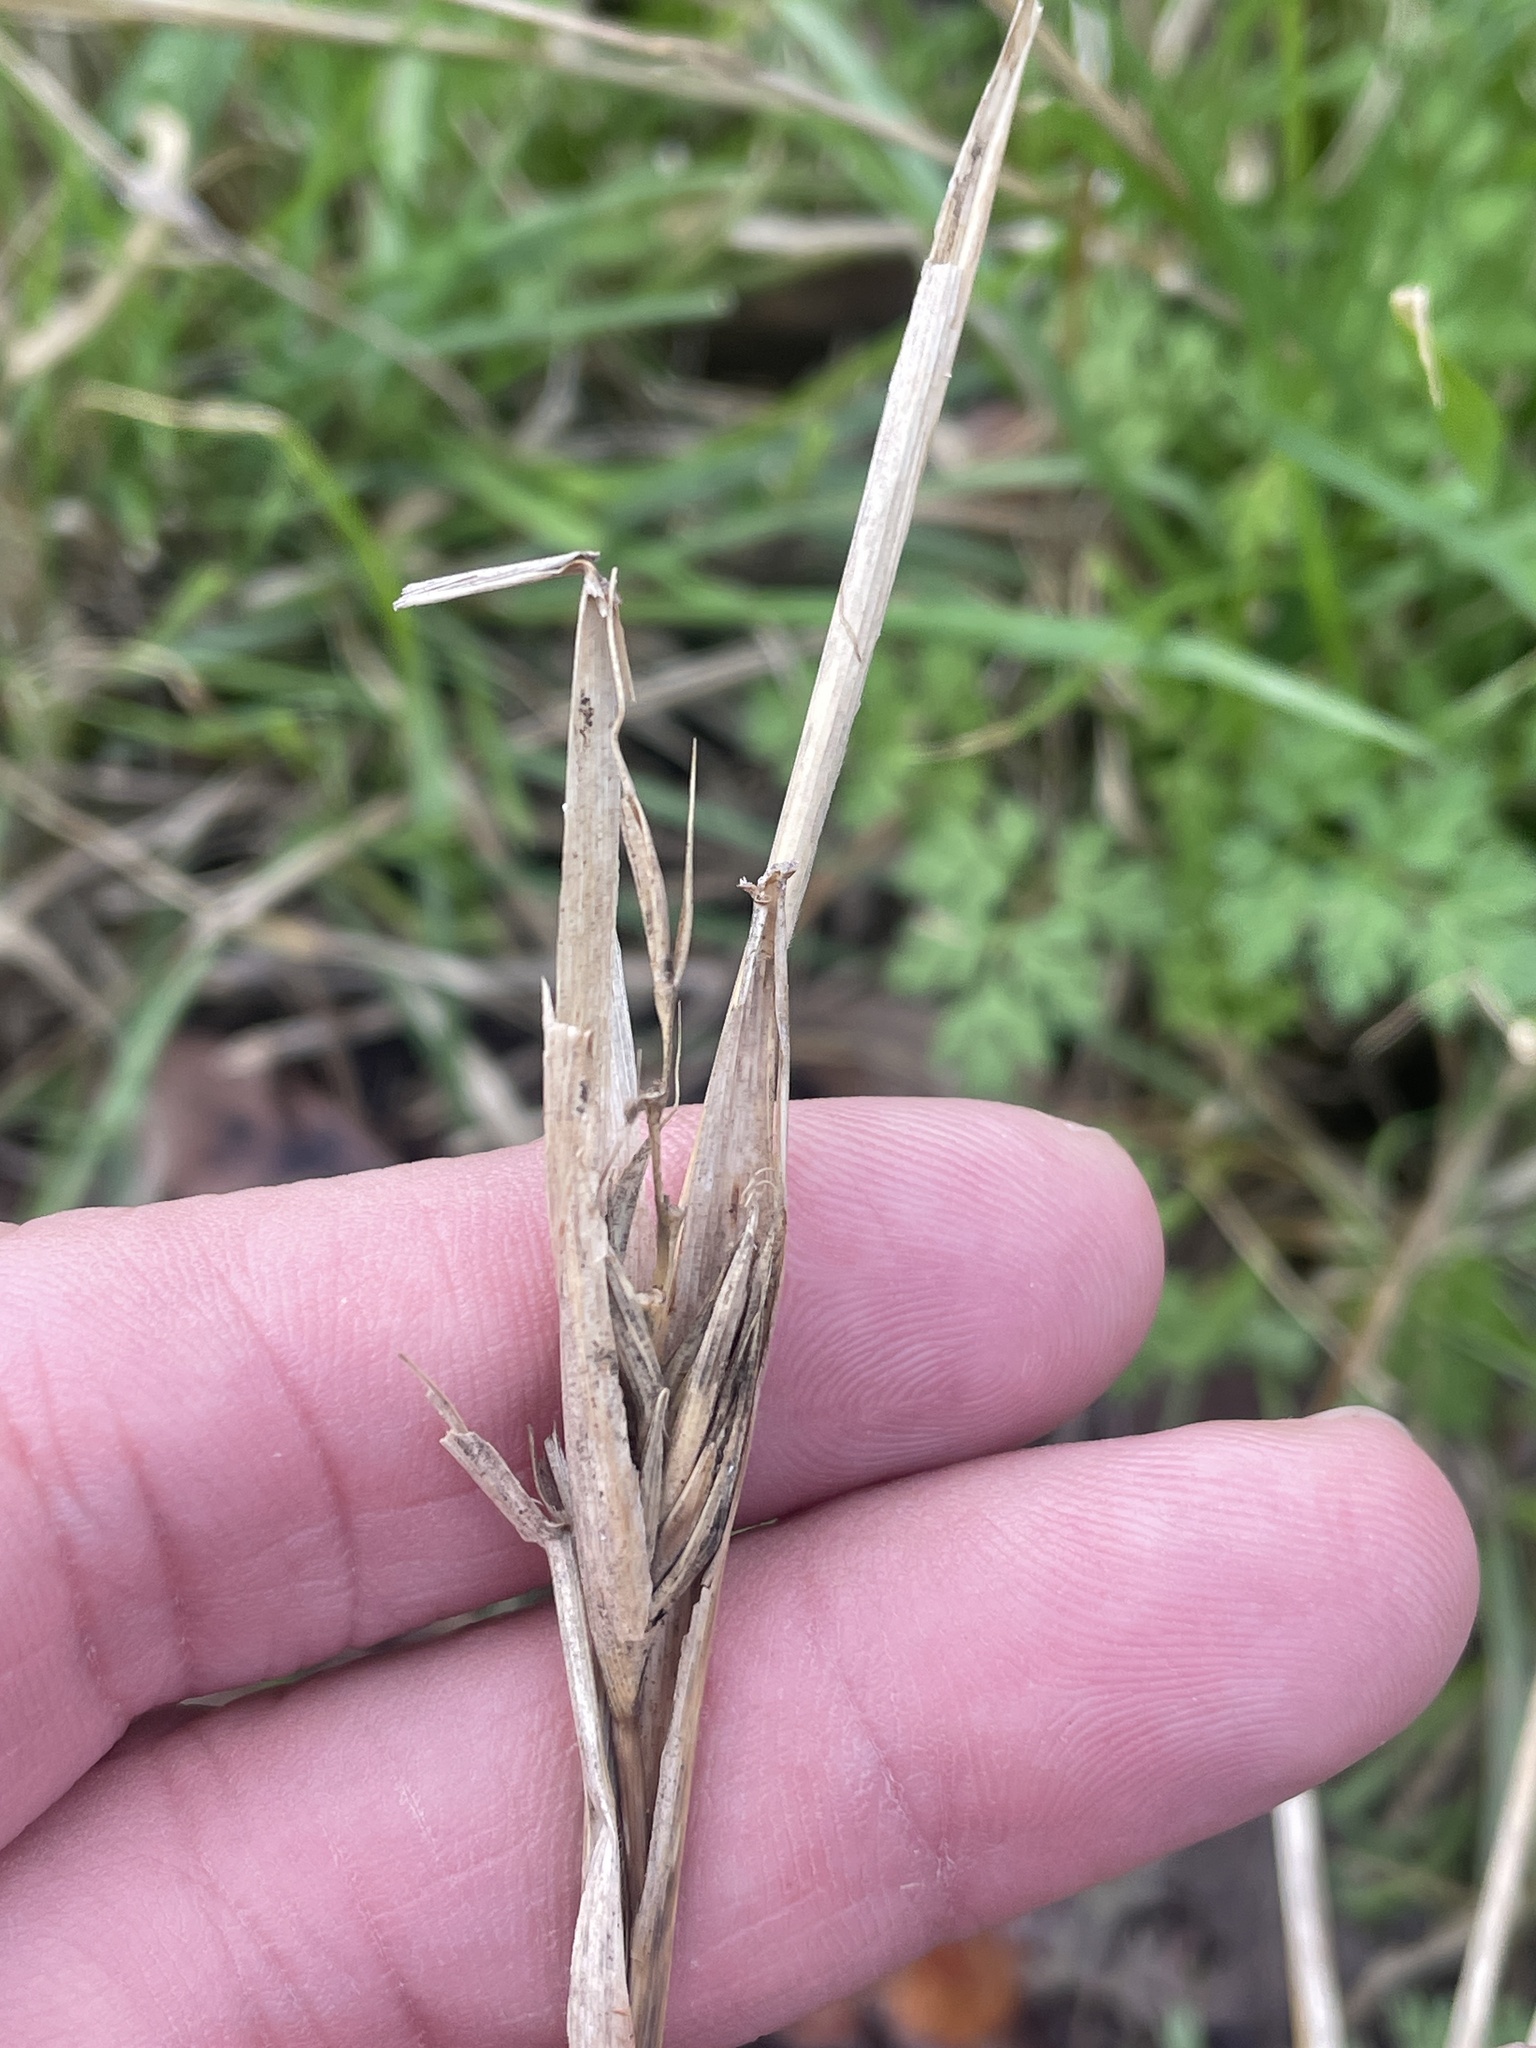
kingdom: Plantae
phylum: Tracheophyta
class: Liliopsida
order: Poales
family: Poaceae
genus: Elymus
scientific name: Elymus virginicus
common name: Common eastern wildrye
